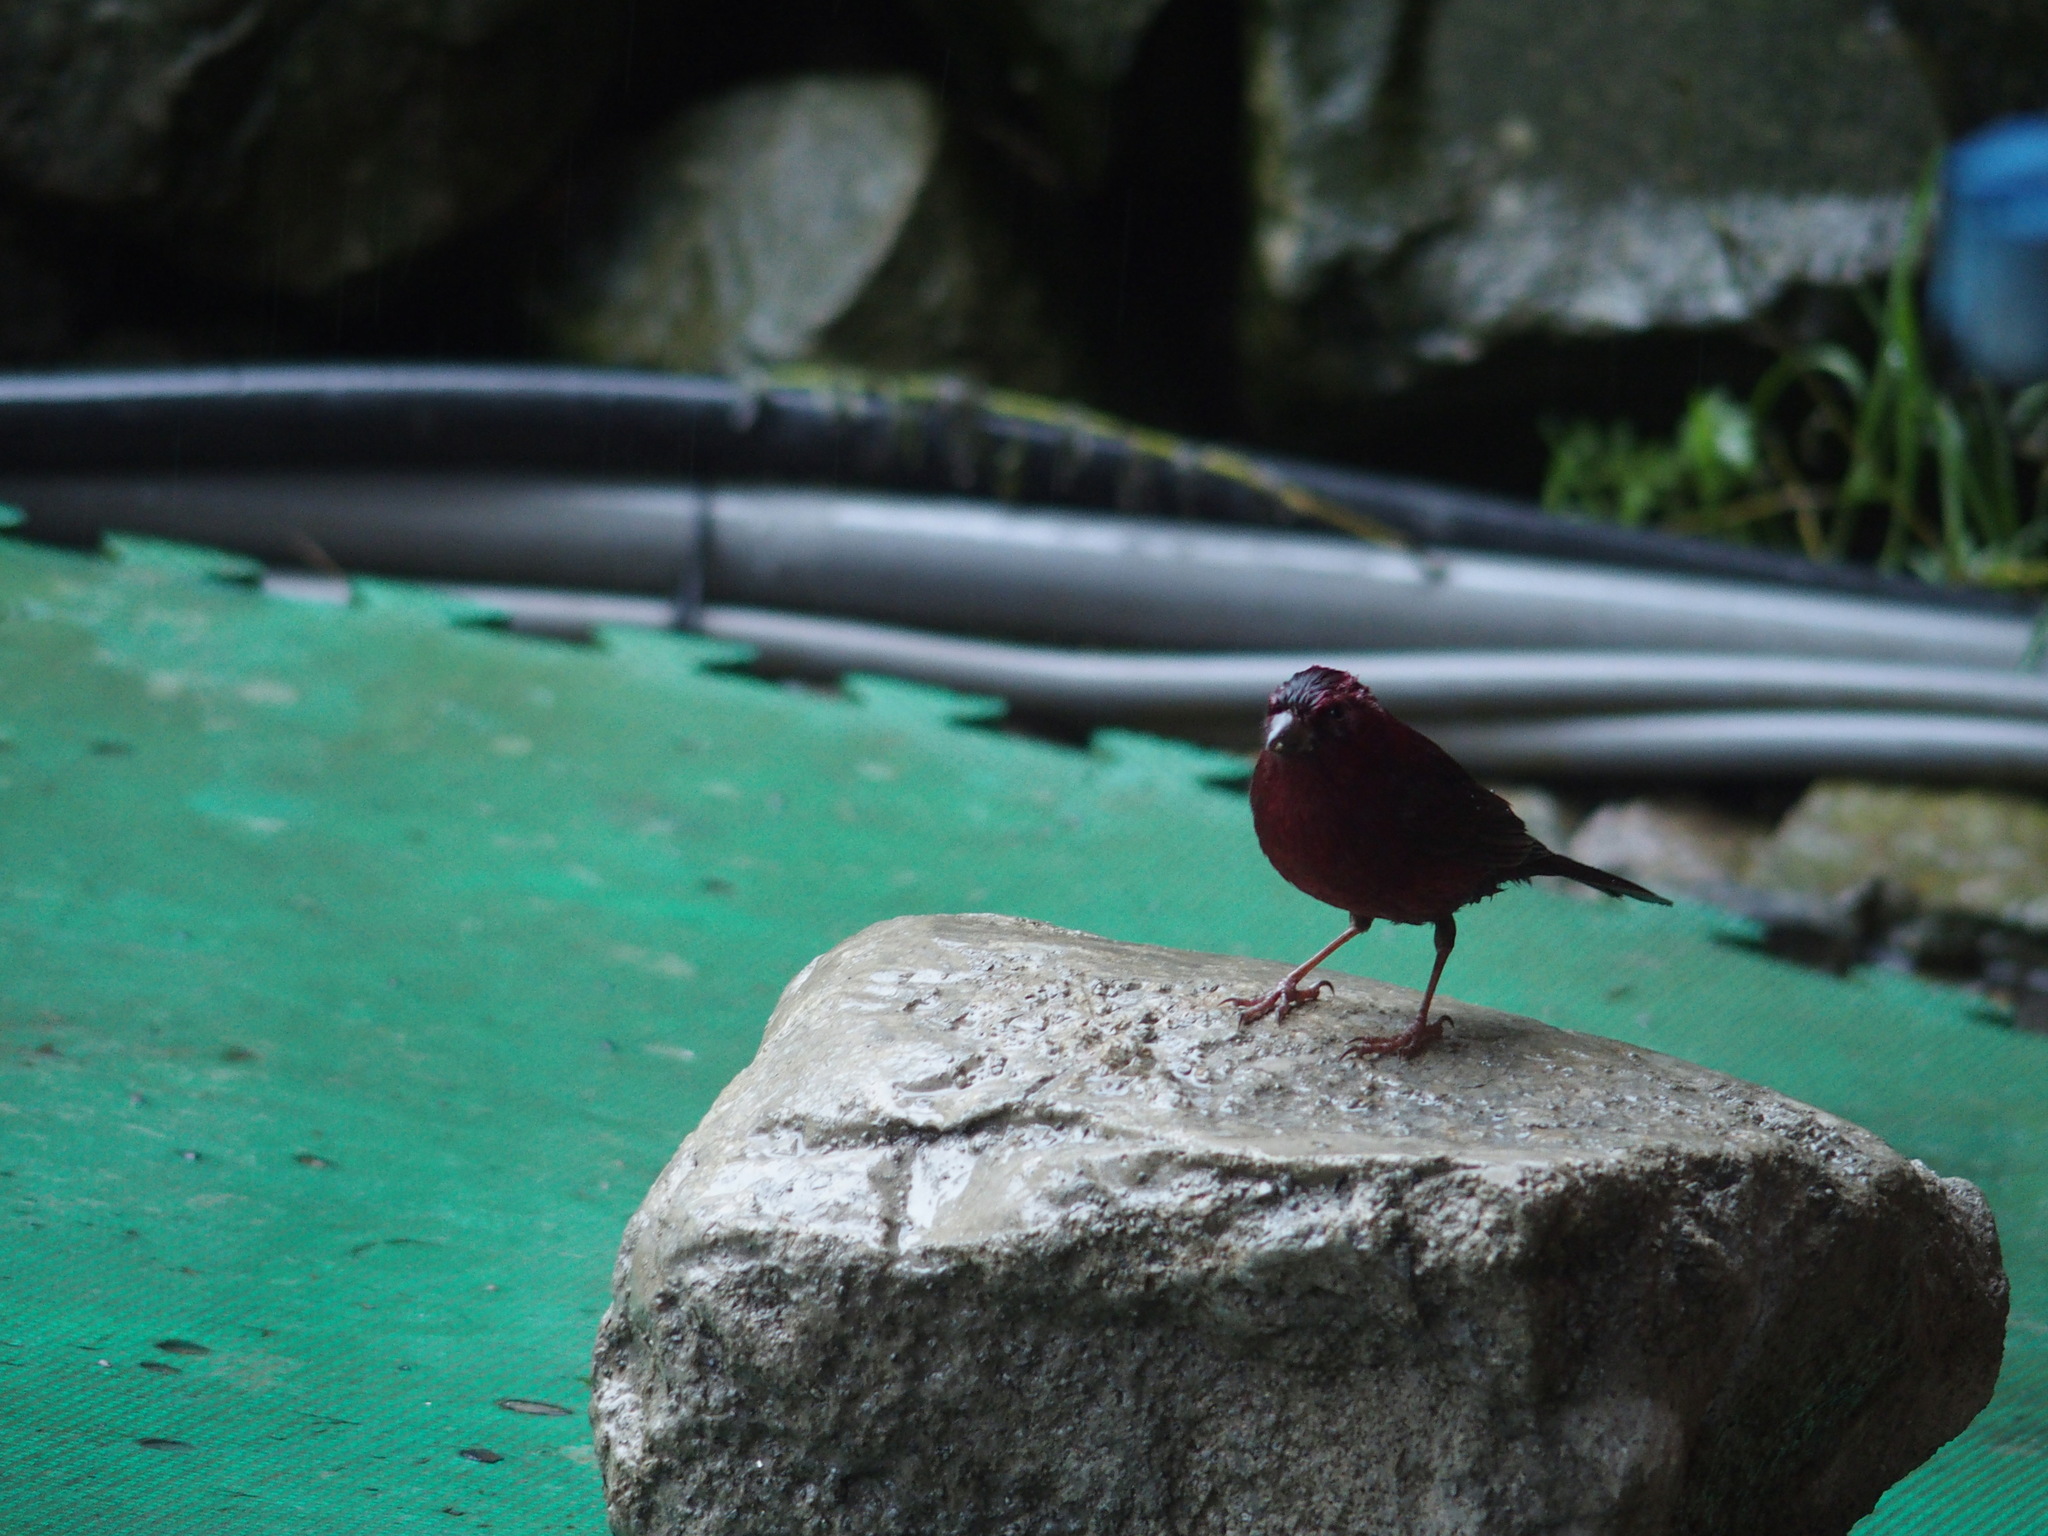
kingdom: Animalia
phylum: Chordata
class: Aves
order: Passeriformes
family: Fringillidae
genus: Carpodacus
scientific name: Carpodacus formosanus
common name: Taiwan rosefinch
